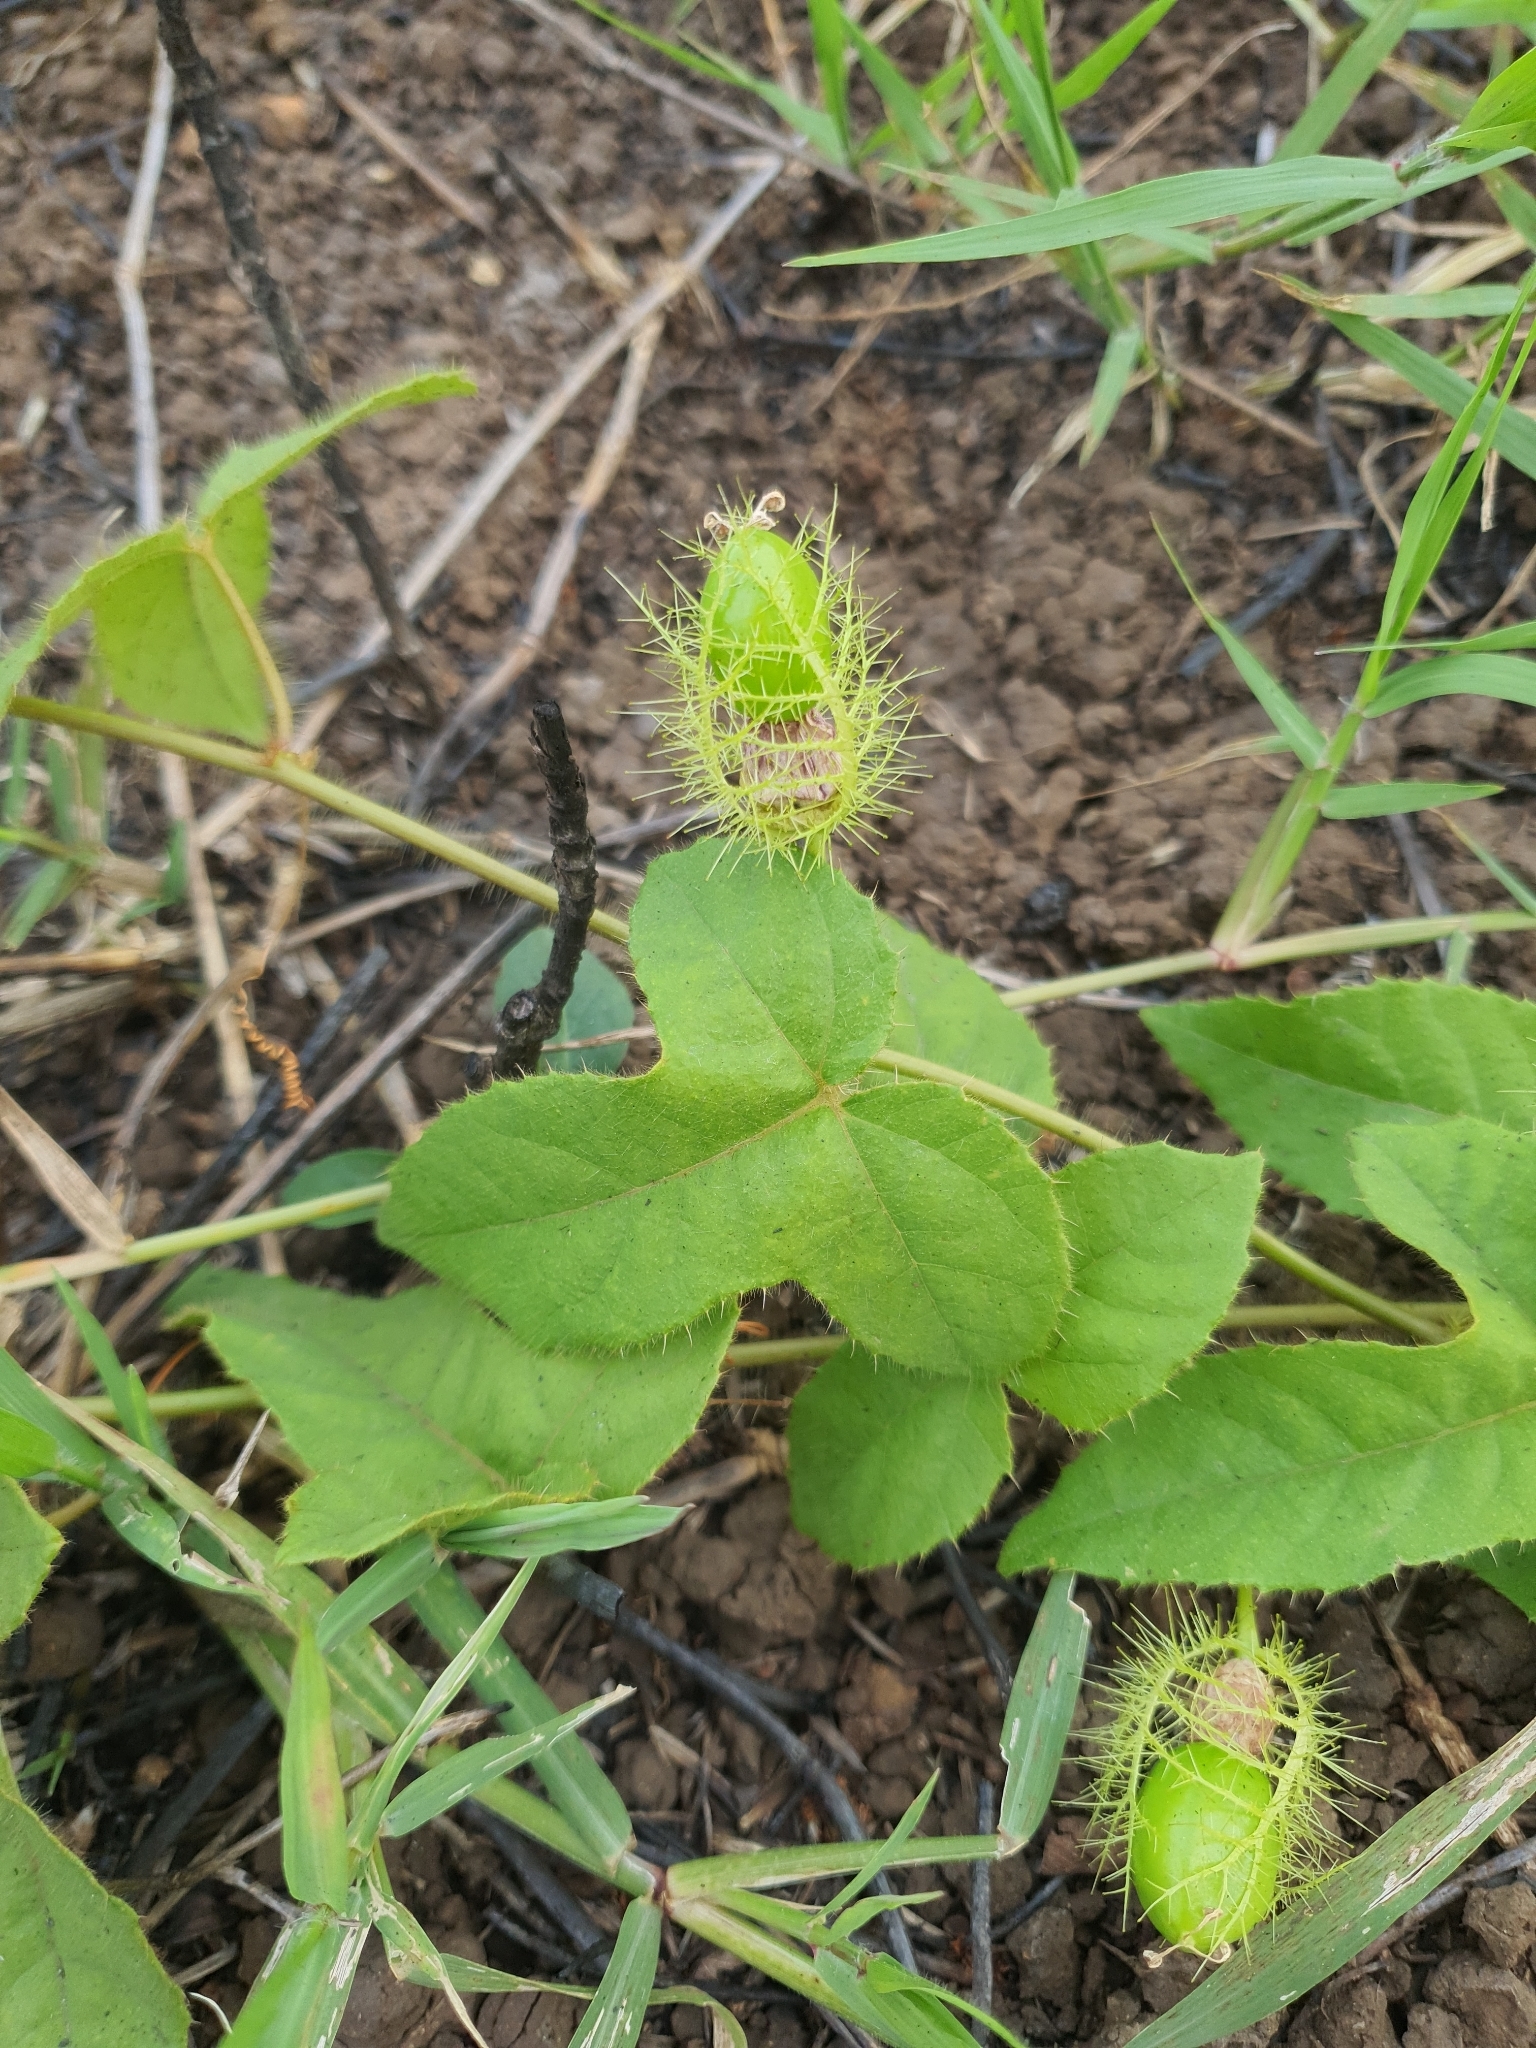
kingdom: Plantae
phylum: Tracheophyta
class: Magnoliopsida
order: Malpighiales
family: Passifloraceae
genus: Passiflora
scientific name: Passiflora foetida
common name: Fetid passionflower
